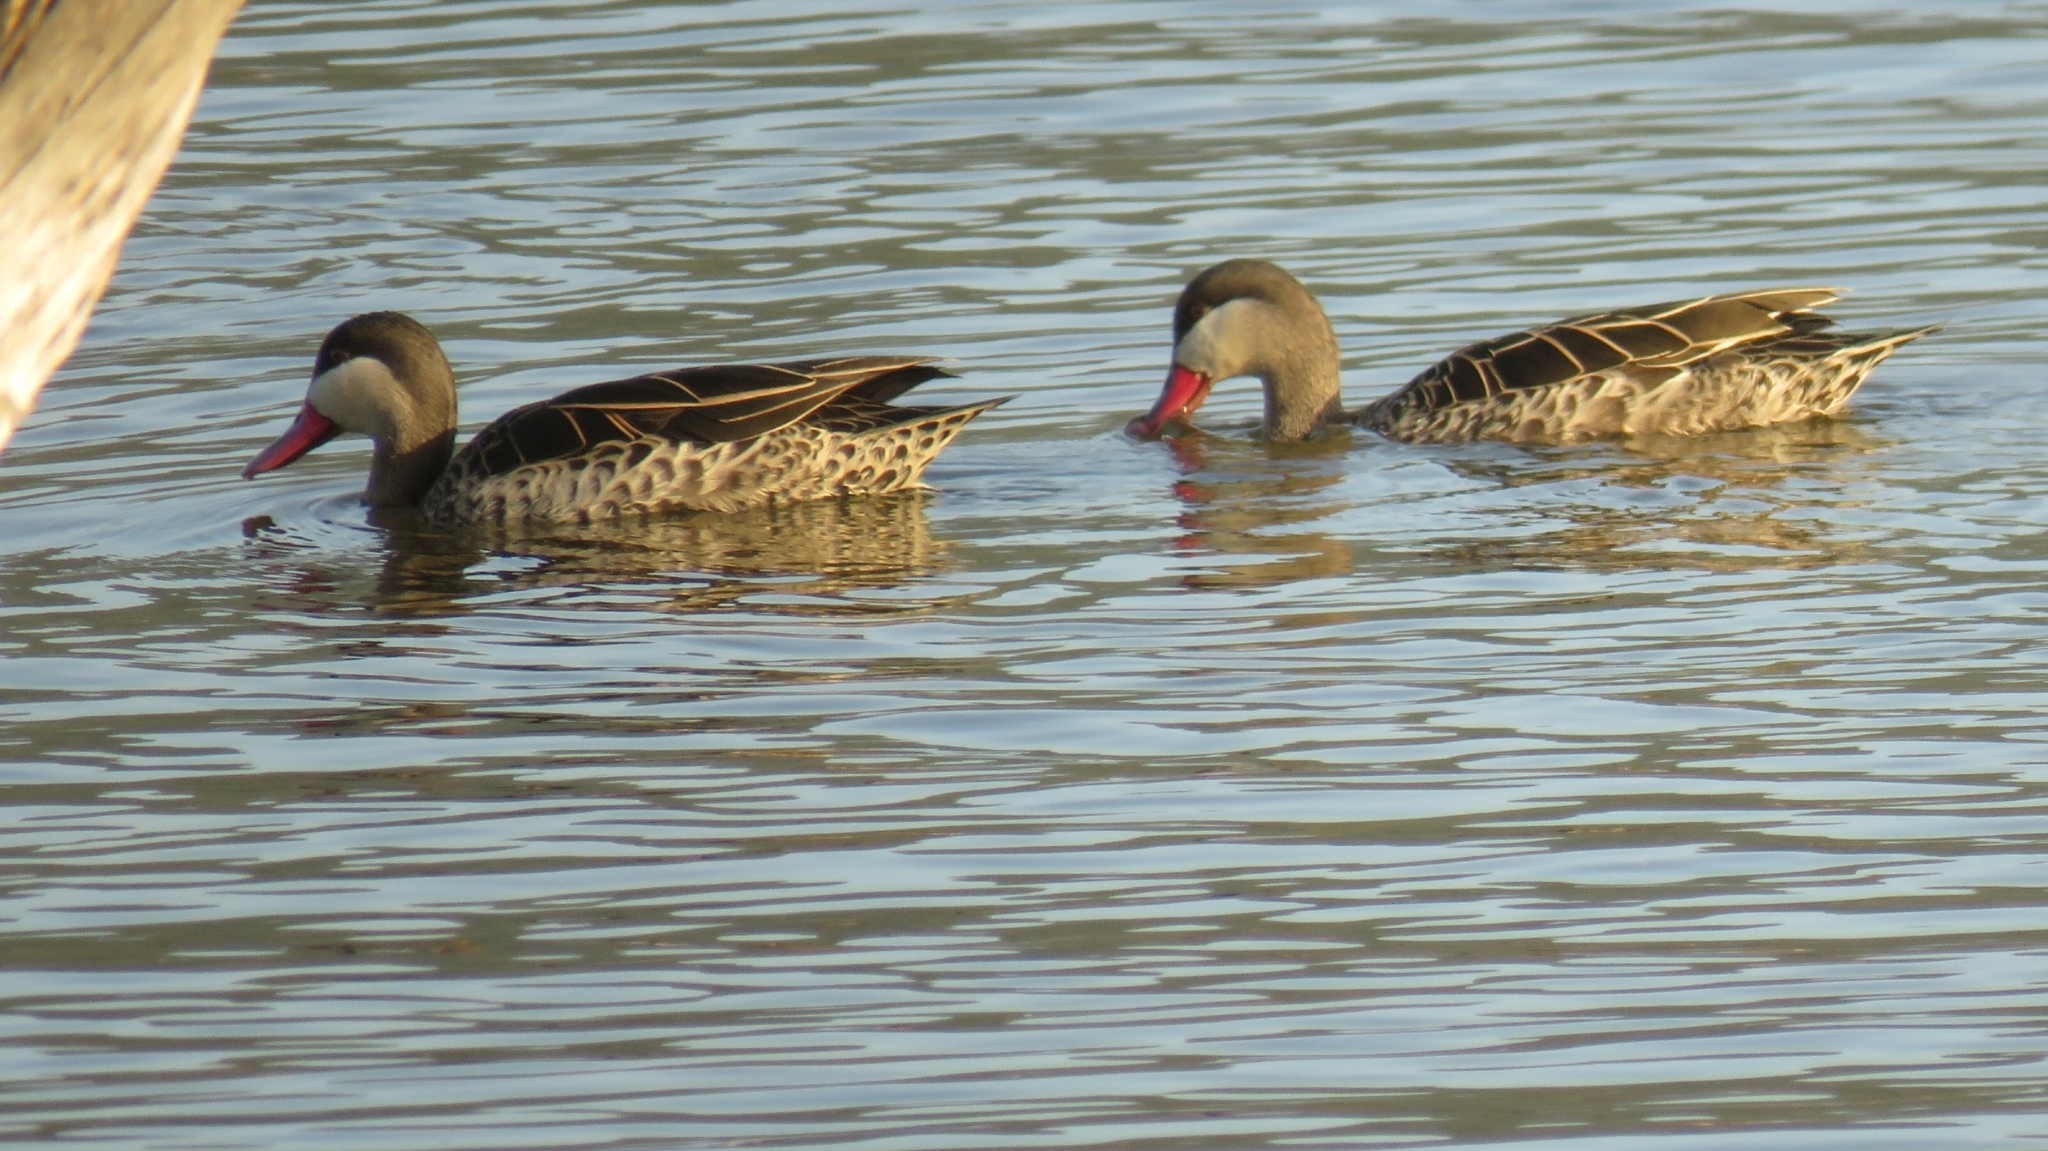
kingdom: Animalia
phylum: Chordata
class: Aves
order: Anseriformes
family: Anatidae
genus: Anas
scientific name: Anas erythrorhyncha
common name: Red-billed teal
